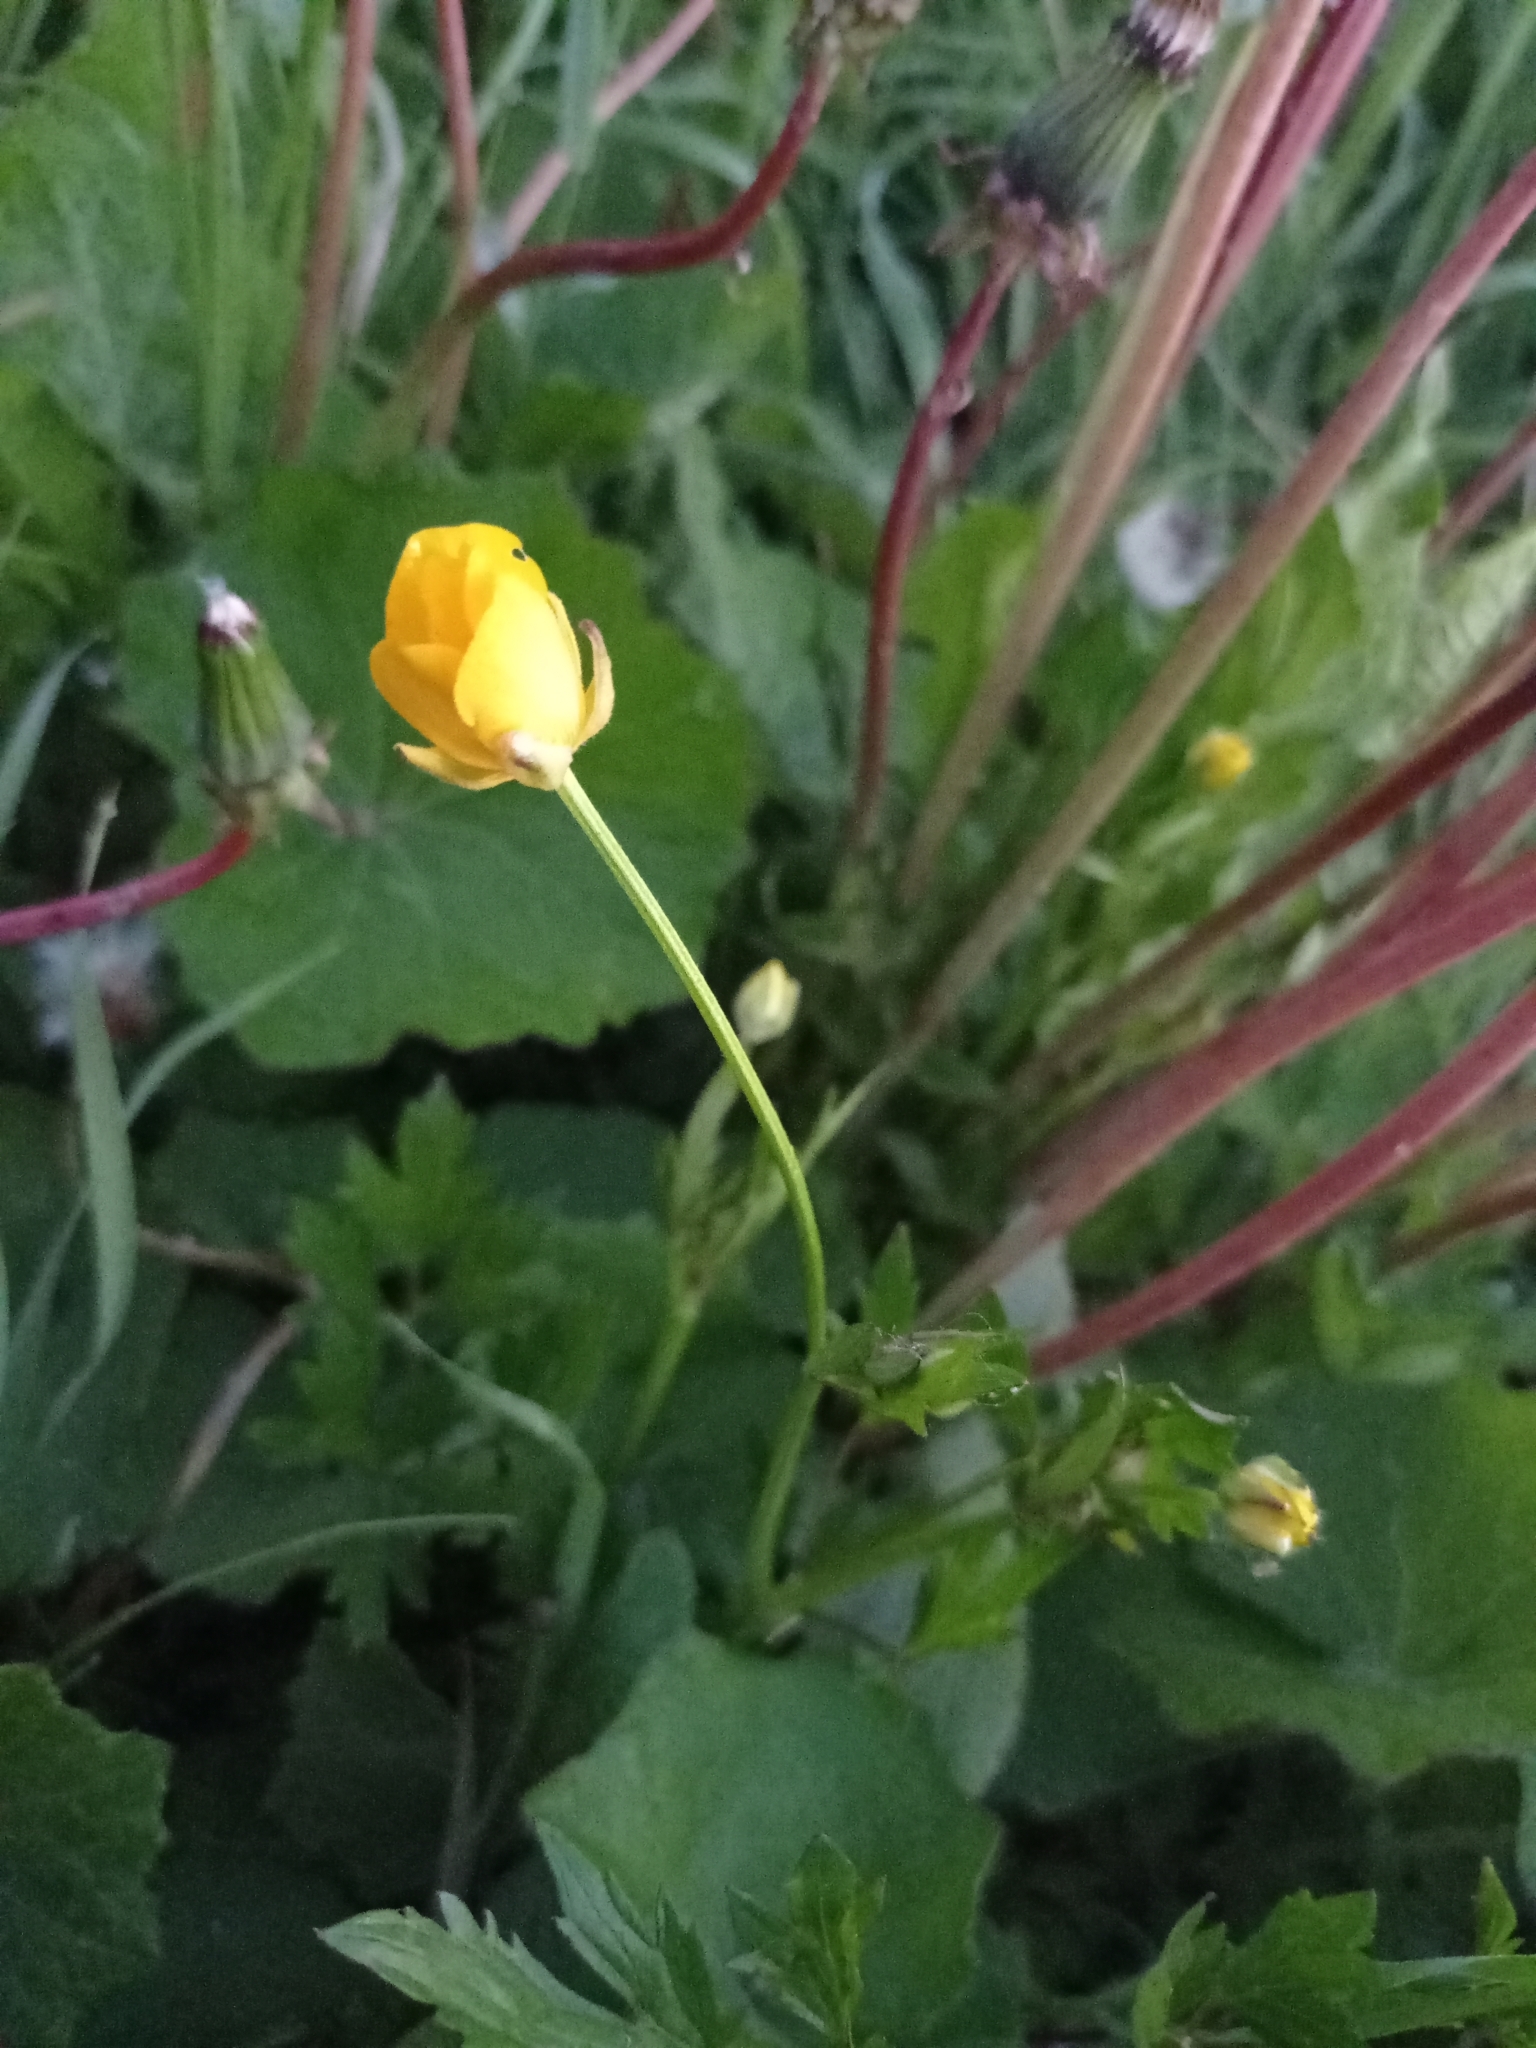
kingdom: Plantae
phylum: Tracheophyta
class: Magnoliopsida
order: Ranunculales
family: Ranunculaceae
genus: Ranunculus
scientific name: Ranunculus repens
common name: Creeping buttercup
